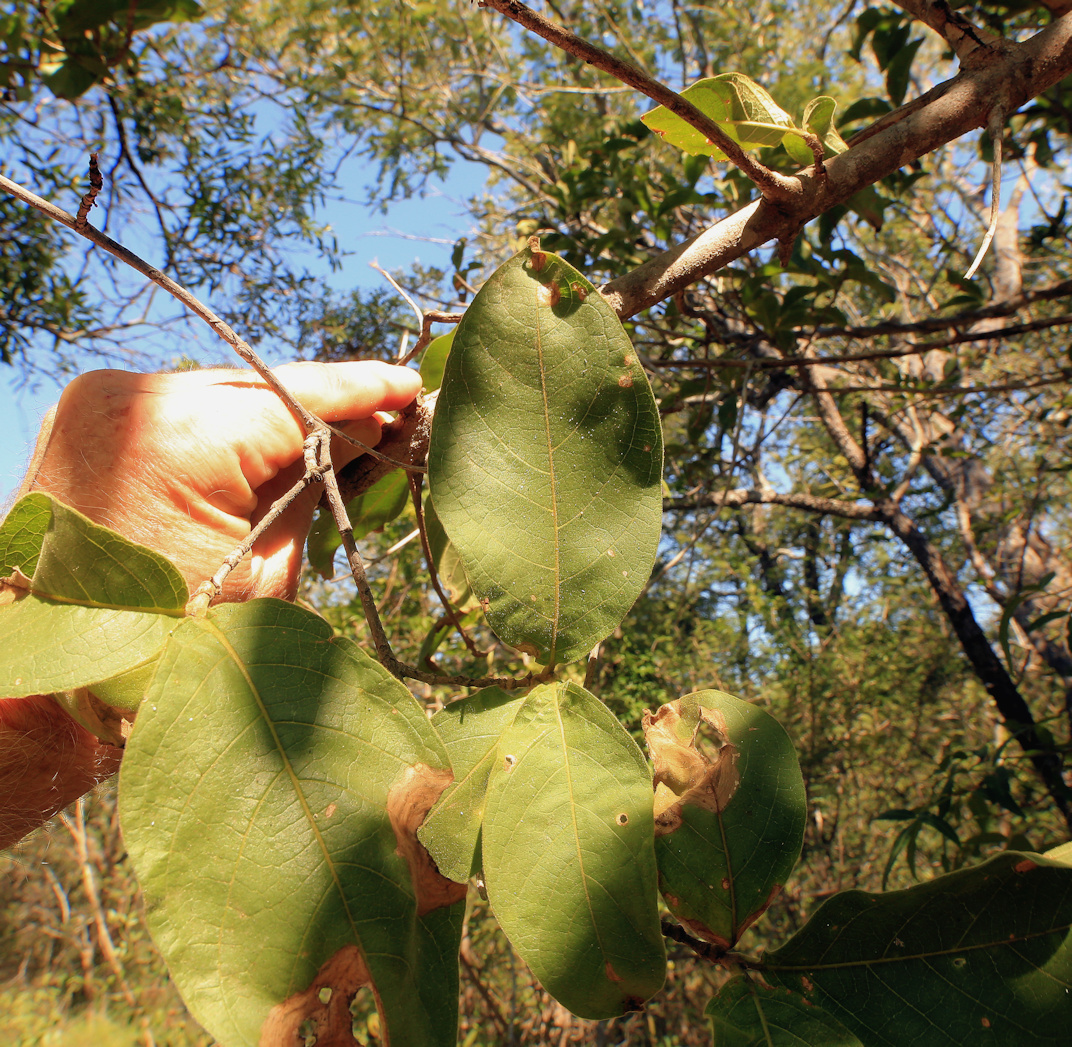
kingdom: Plantae
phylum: Tracheophyta
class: Magnoliopsida
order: Myrtales
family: Combretaceae
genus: Combretum
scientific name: Combretum molle
